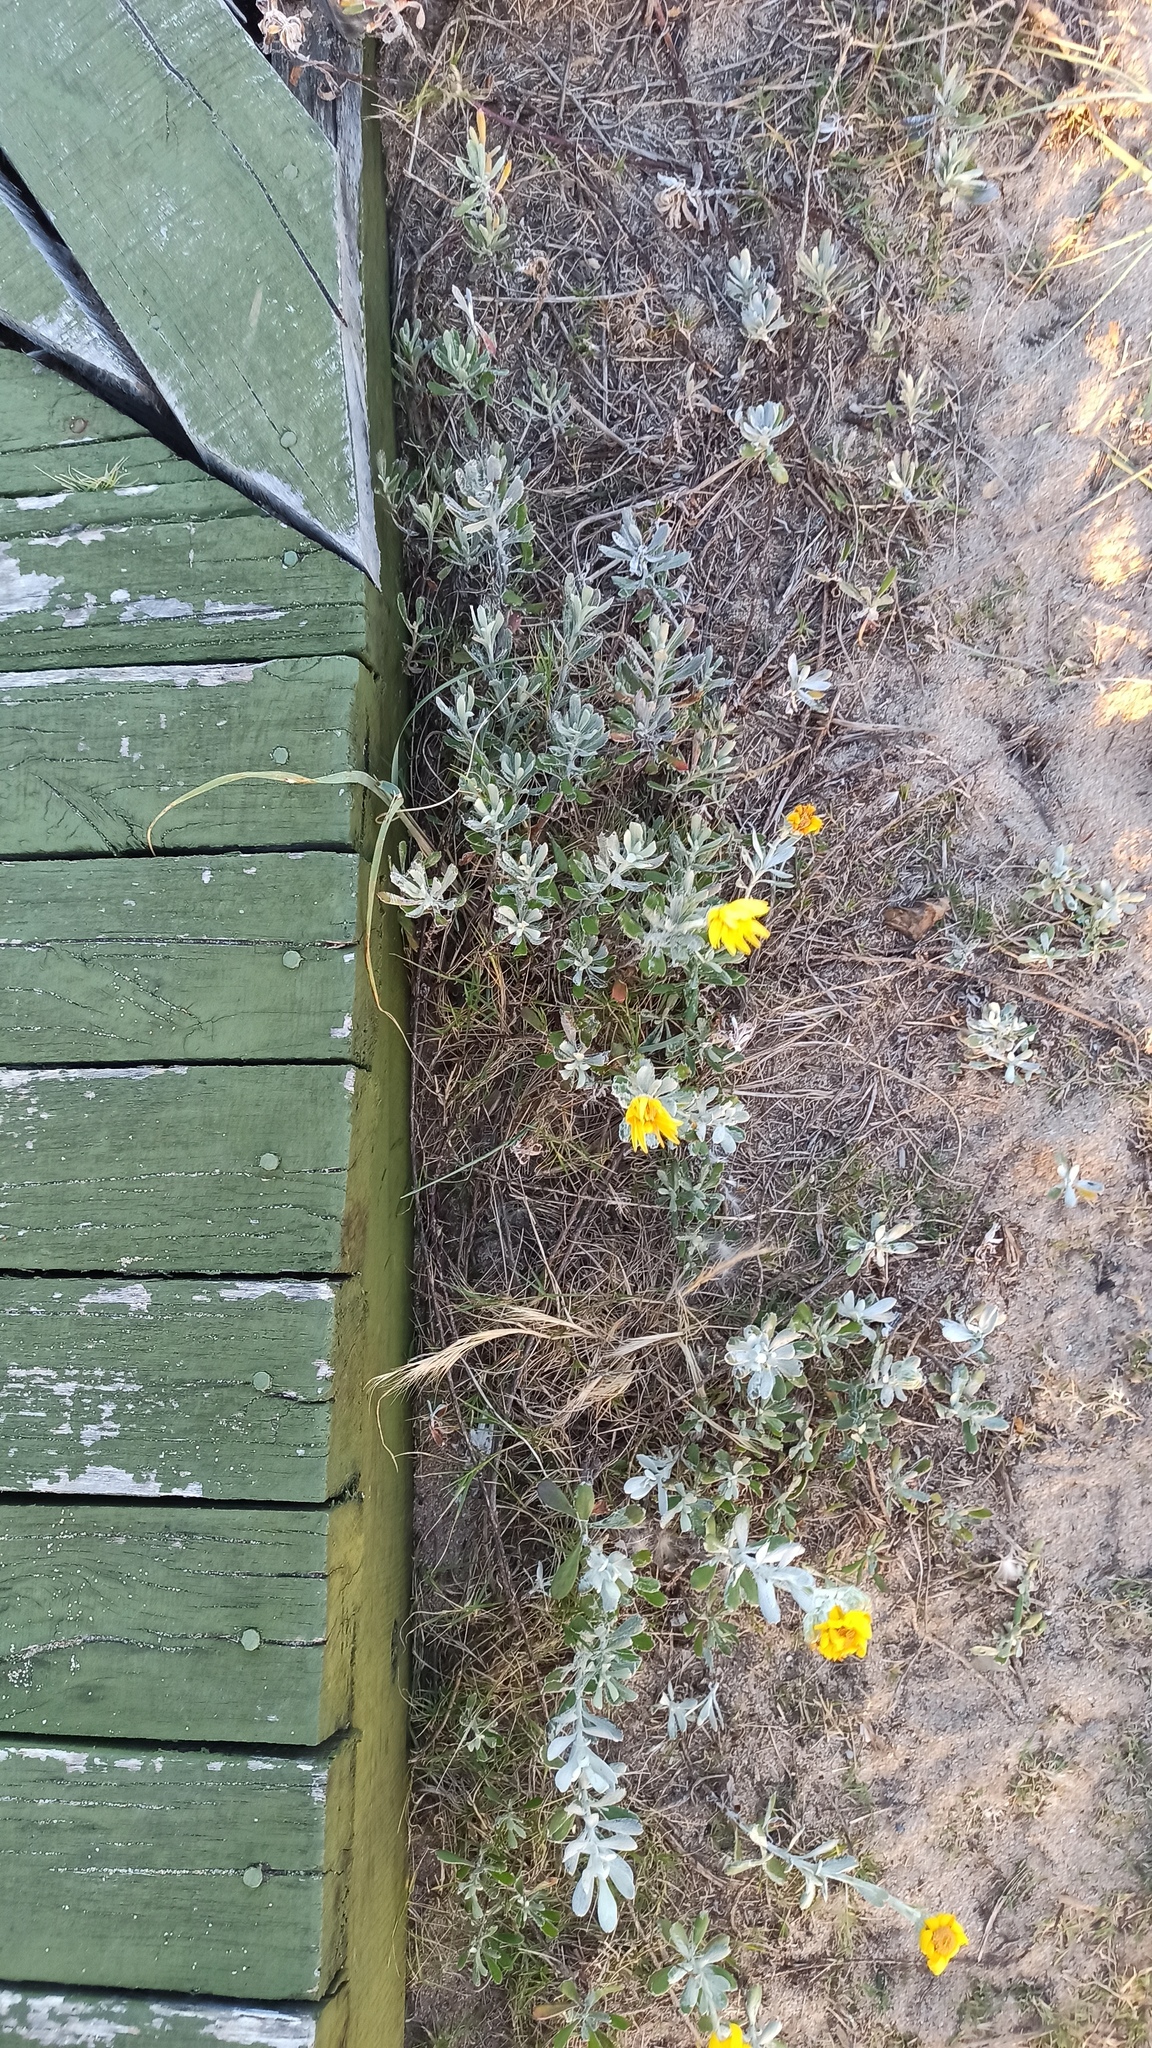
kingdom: Plantae
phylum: Tracheophyta
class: Magnoliopsida
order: Asterales
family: Asteraceae
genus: Senecio
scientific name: Senecio crassiflorus
